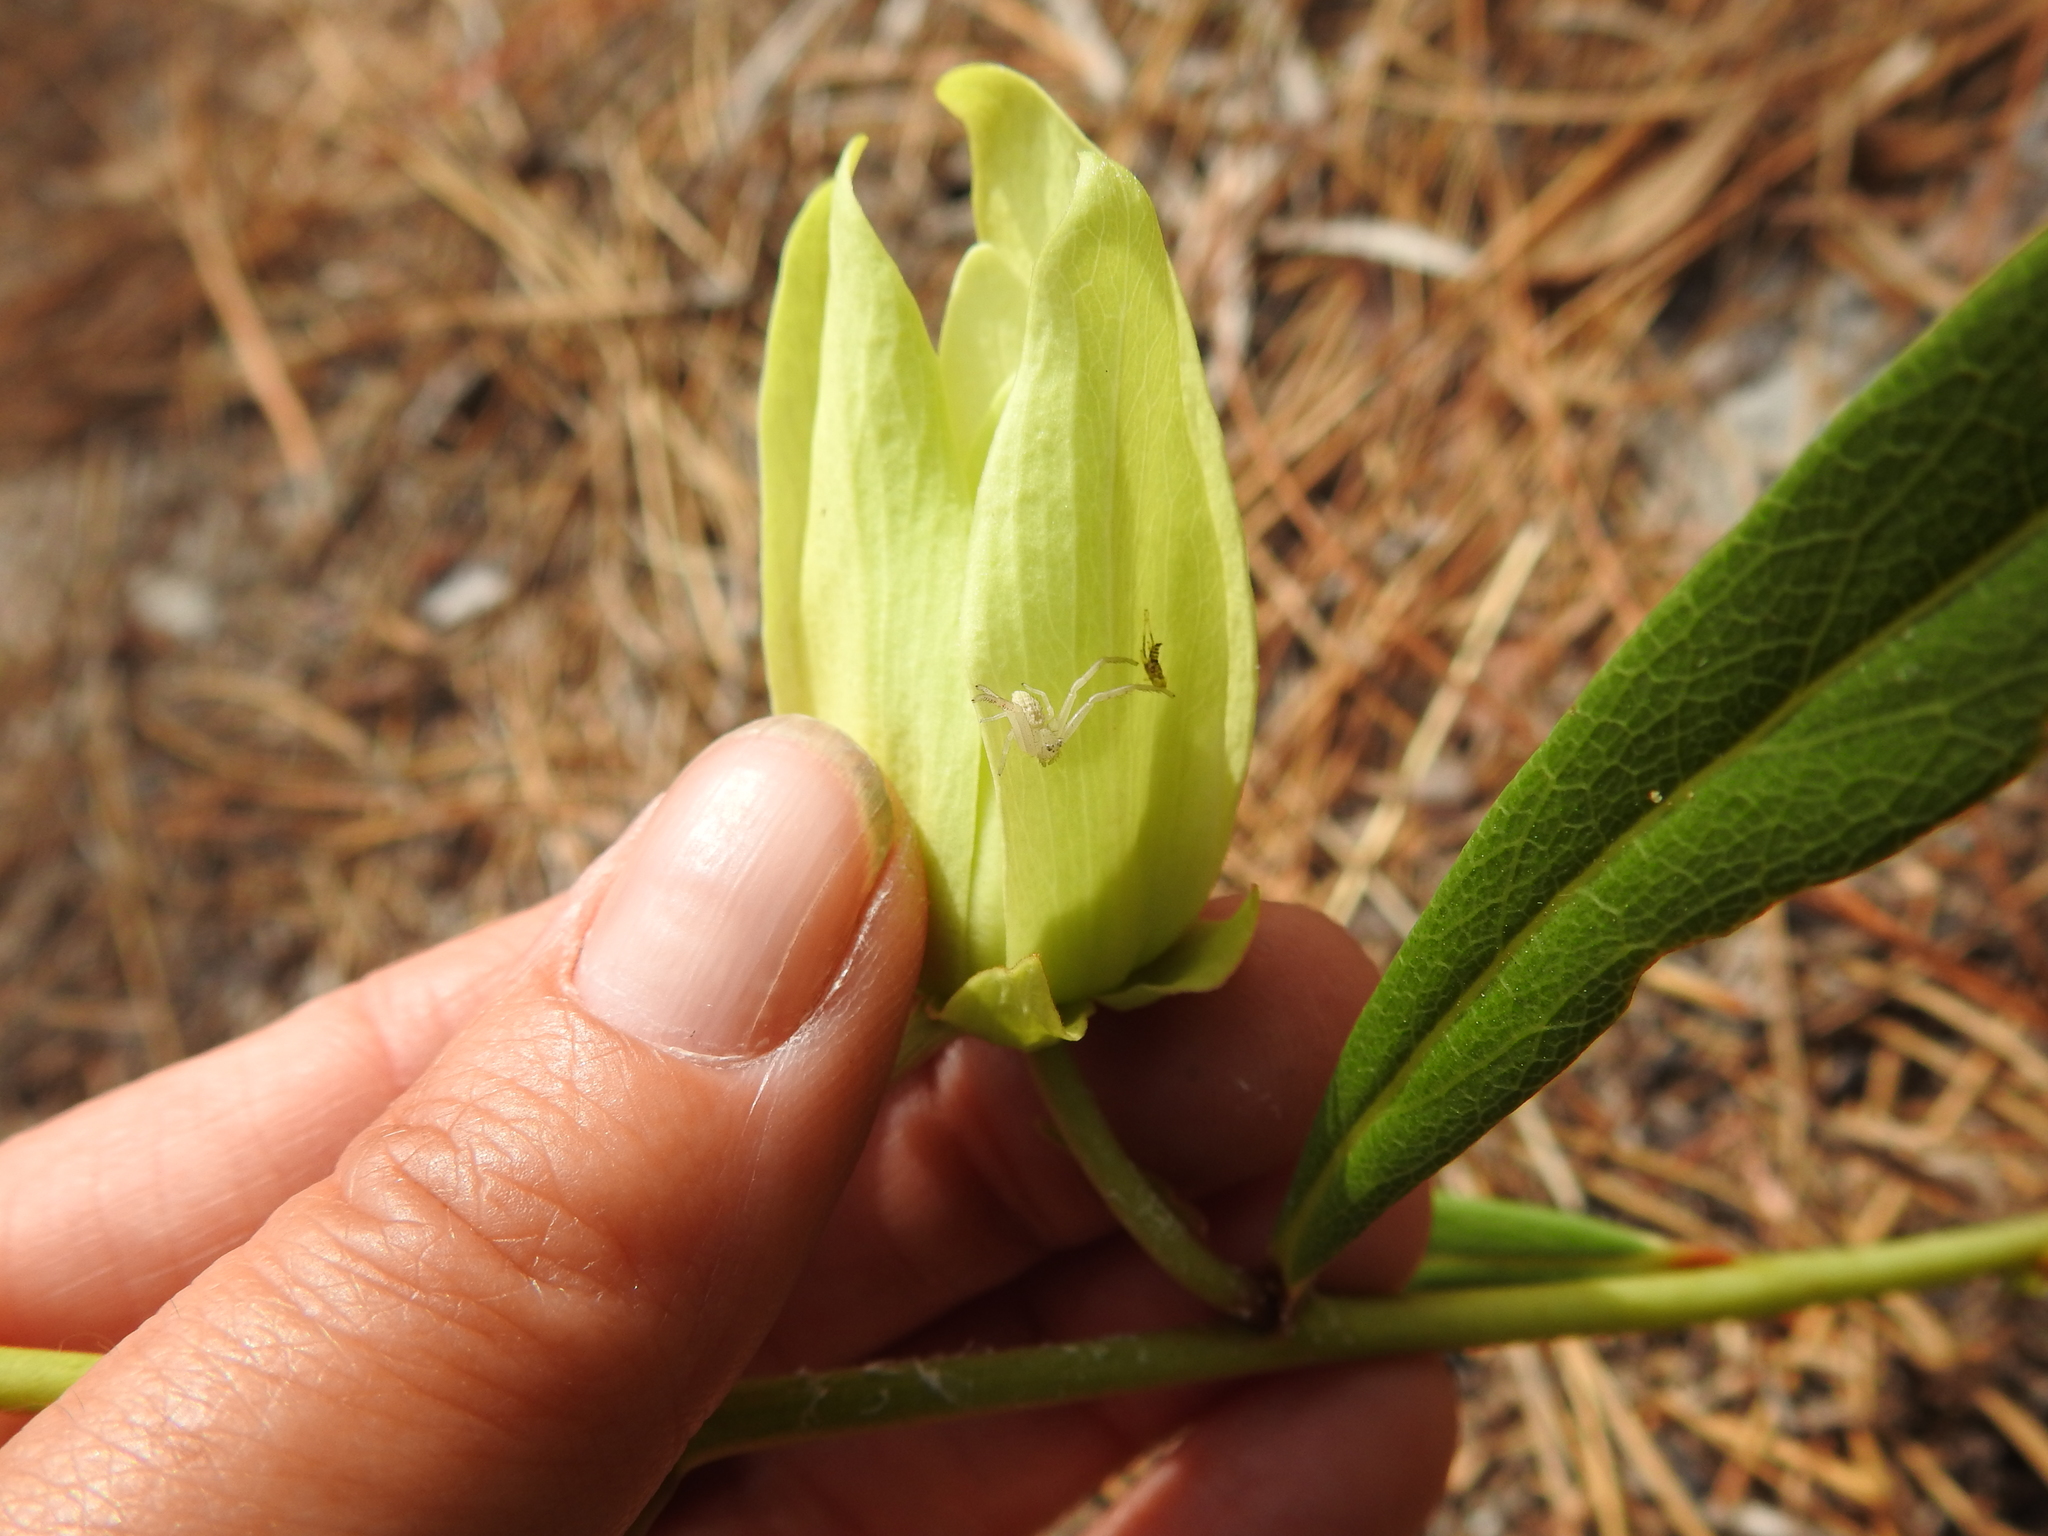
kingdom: Plantae
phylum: Tracheophyta
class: Magnoliopsida
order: Magnoliales
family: Annonaceae
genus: Asimina
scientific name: Asimina longifolia
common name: Polecatbush
